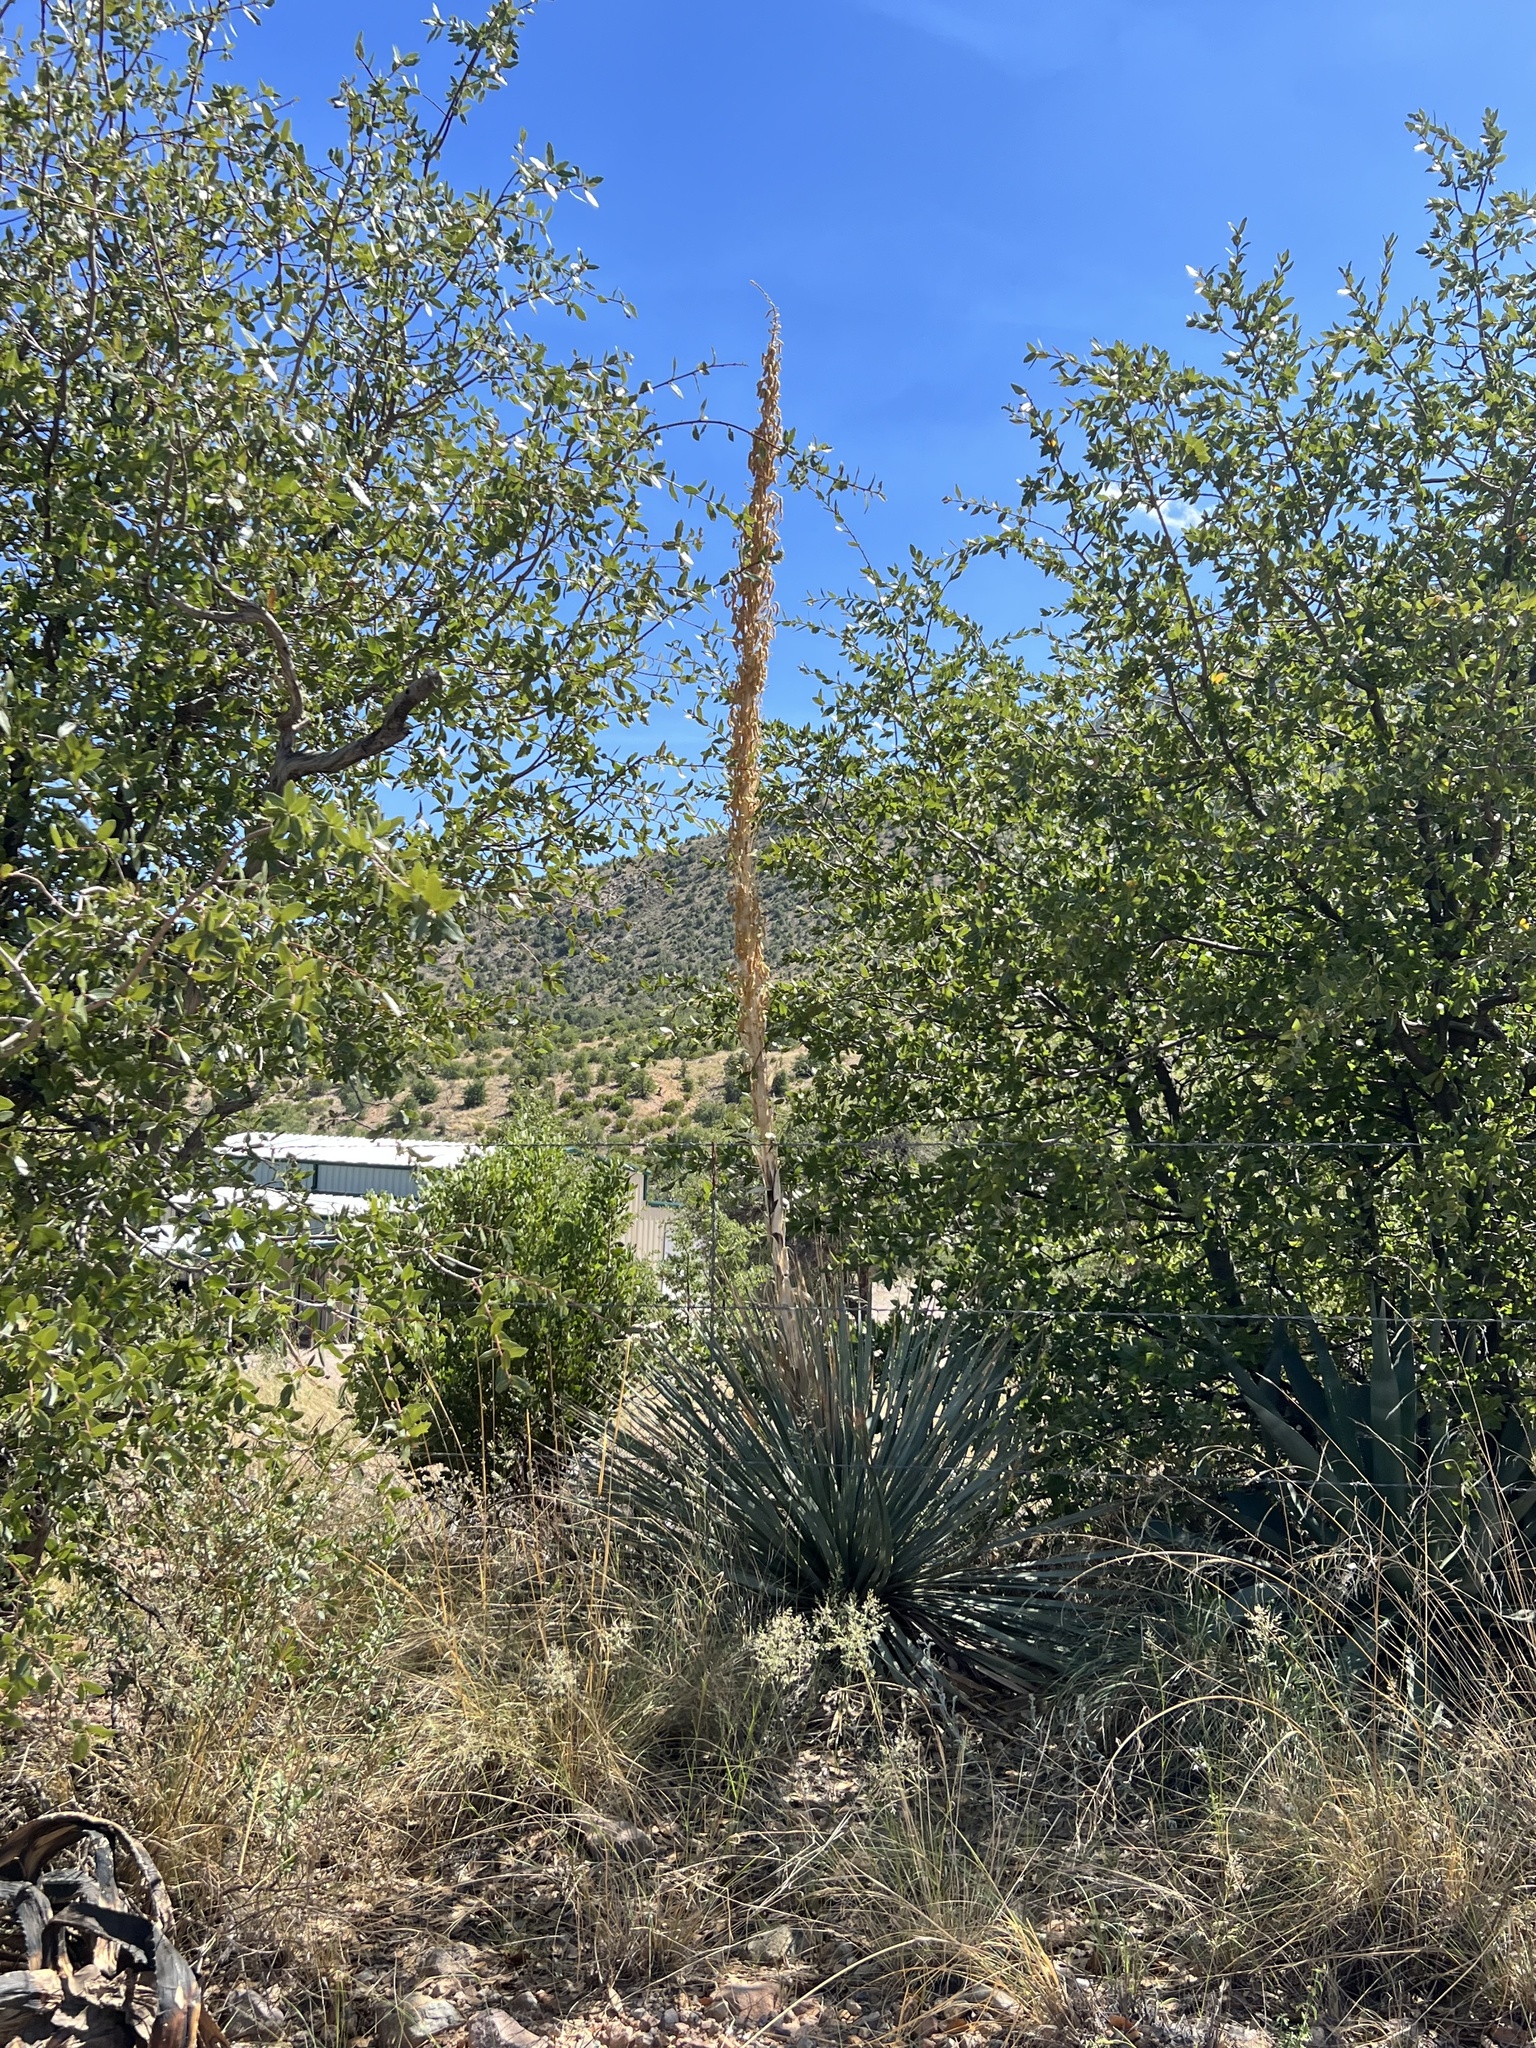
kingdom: Plantae
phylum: Tracheophyta
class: Liliopsida
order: Asparagales
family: Asparagaceae
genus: Dasylirion
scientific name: Dasylirion wheeleri
